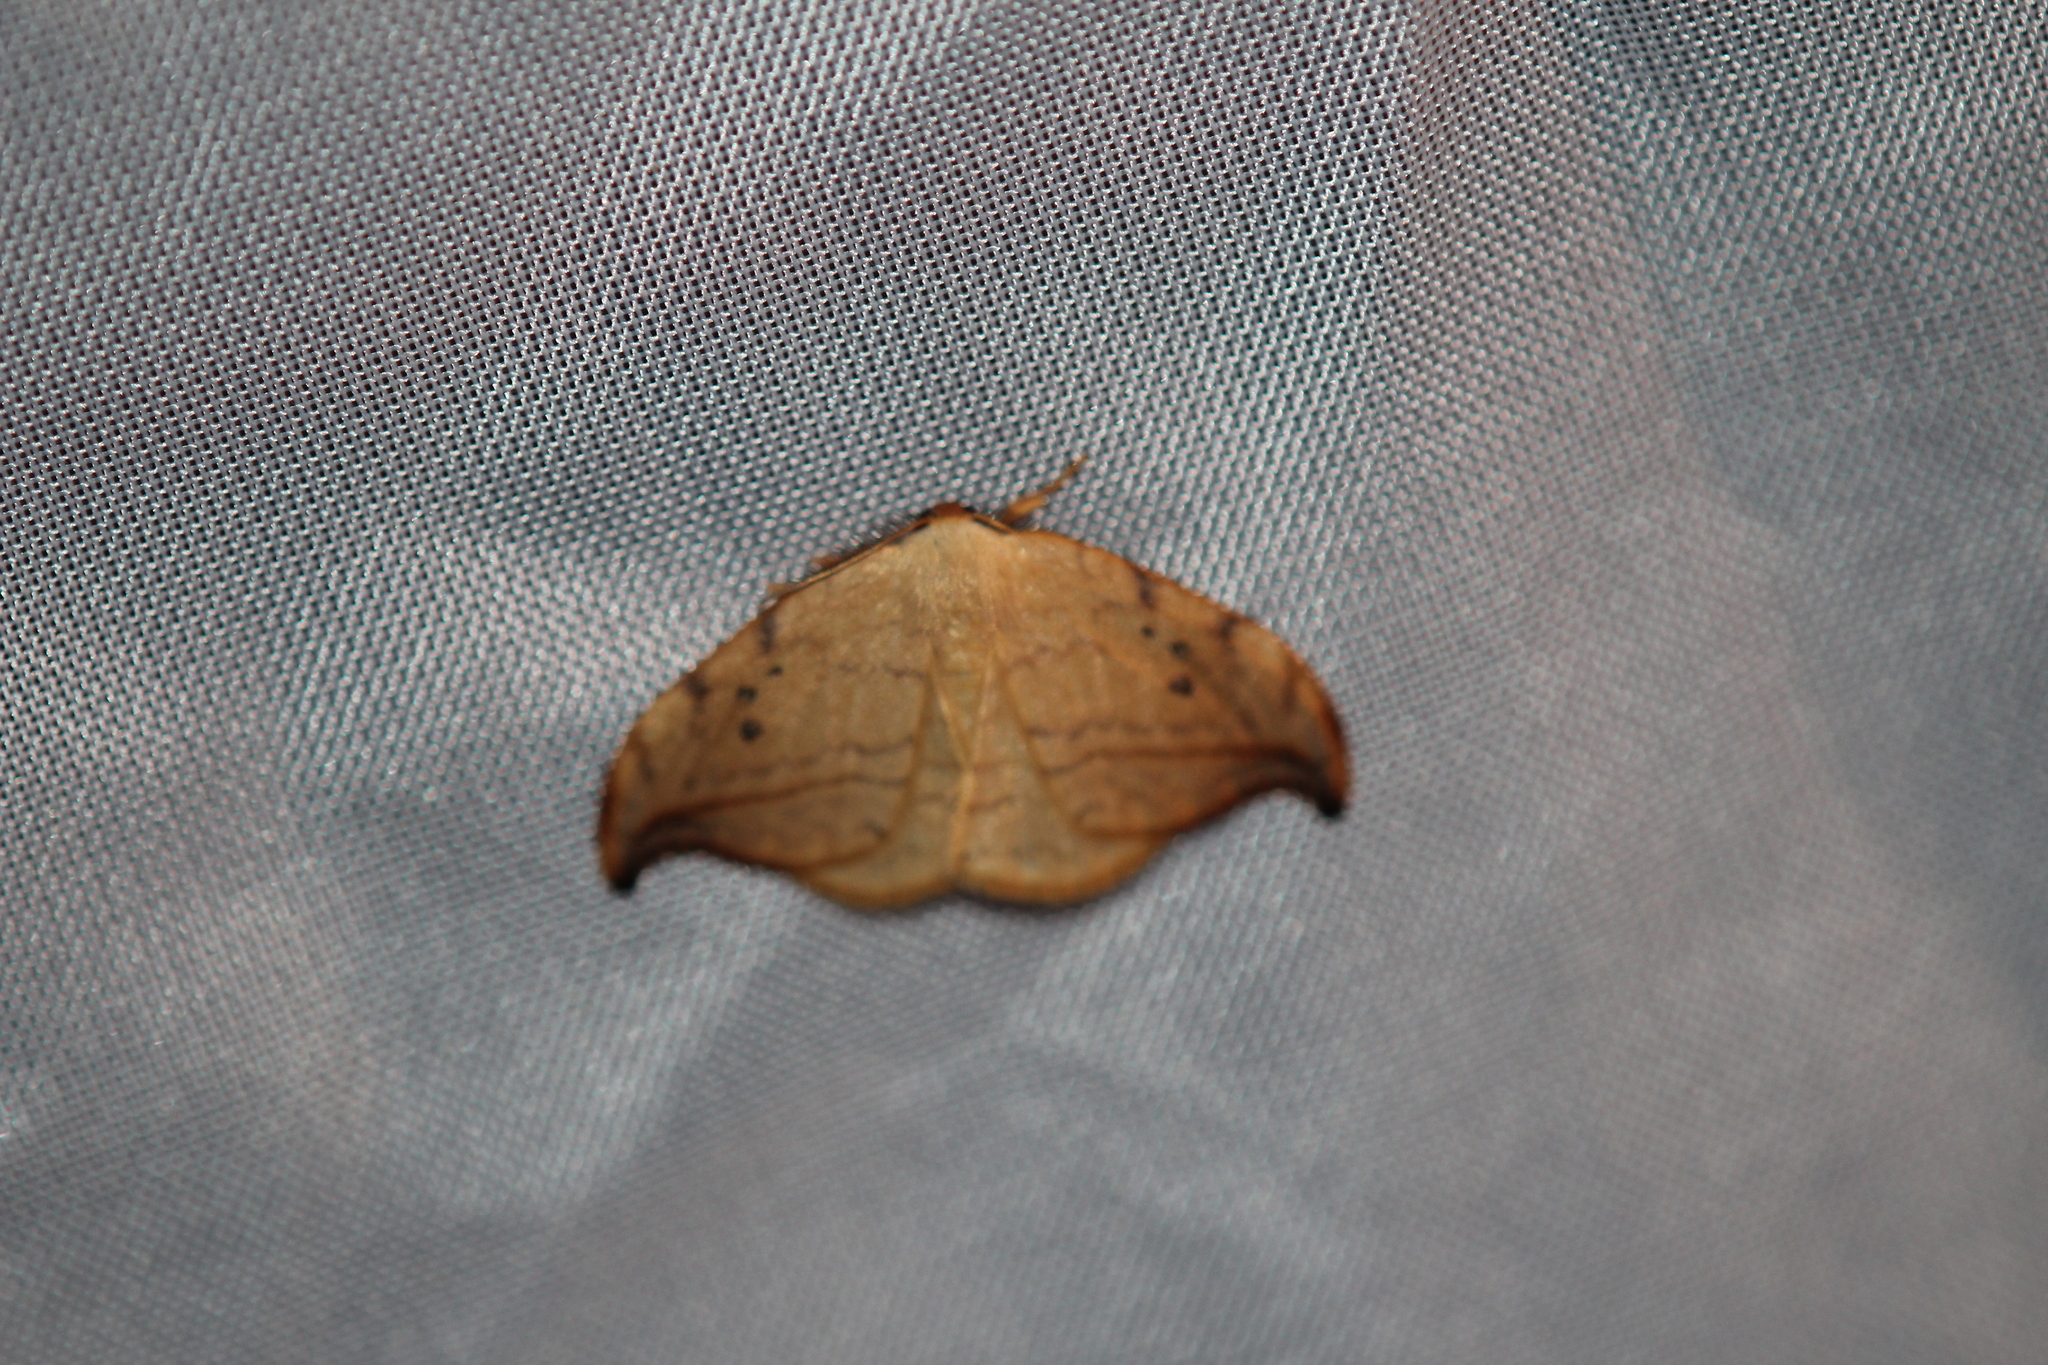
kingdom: Animalia
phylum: Arthropoda
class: Insecta
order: Lepidoptera
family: Drepanidae
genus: Drepana
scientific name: Drepana arcuata
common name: Arched hooktip moth
